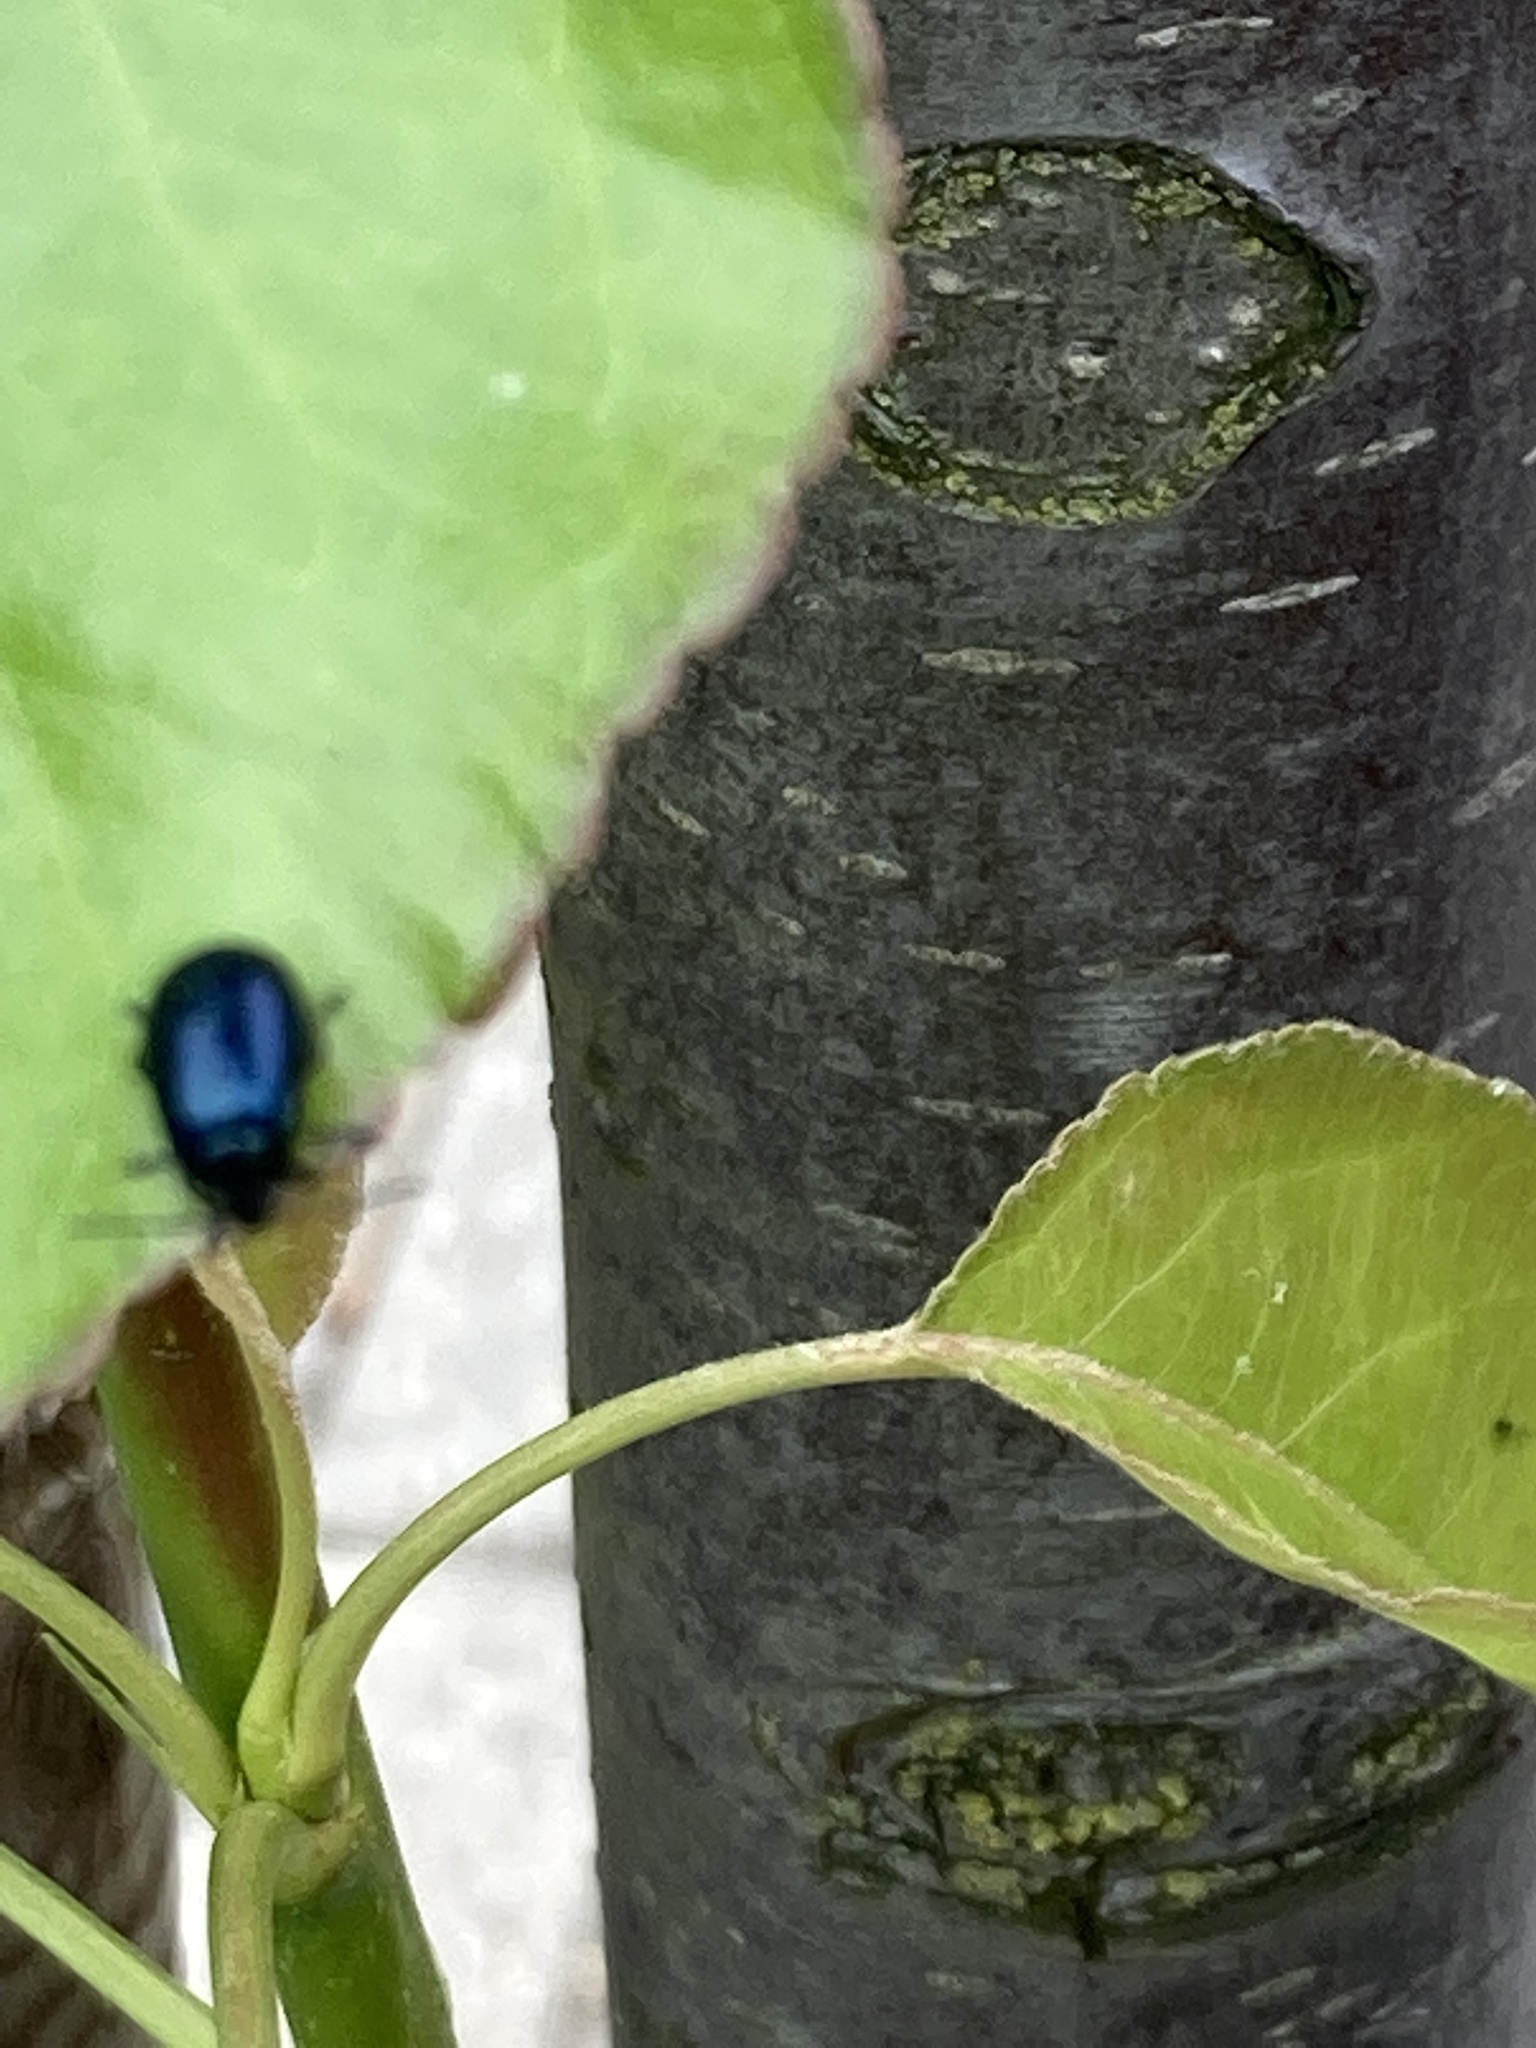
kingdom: Animalia
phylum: Arthropoda
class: Insecta
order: Coleoptera
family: Chrysomelidae
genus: Agelastica
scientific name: Agelastica alni
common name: Alder leaf beetle
